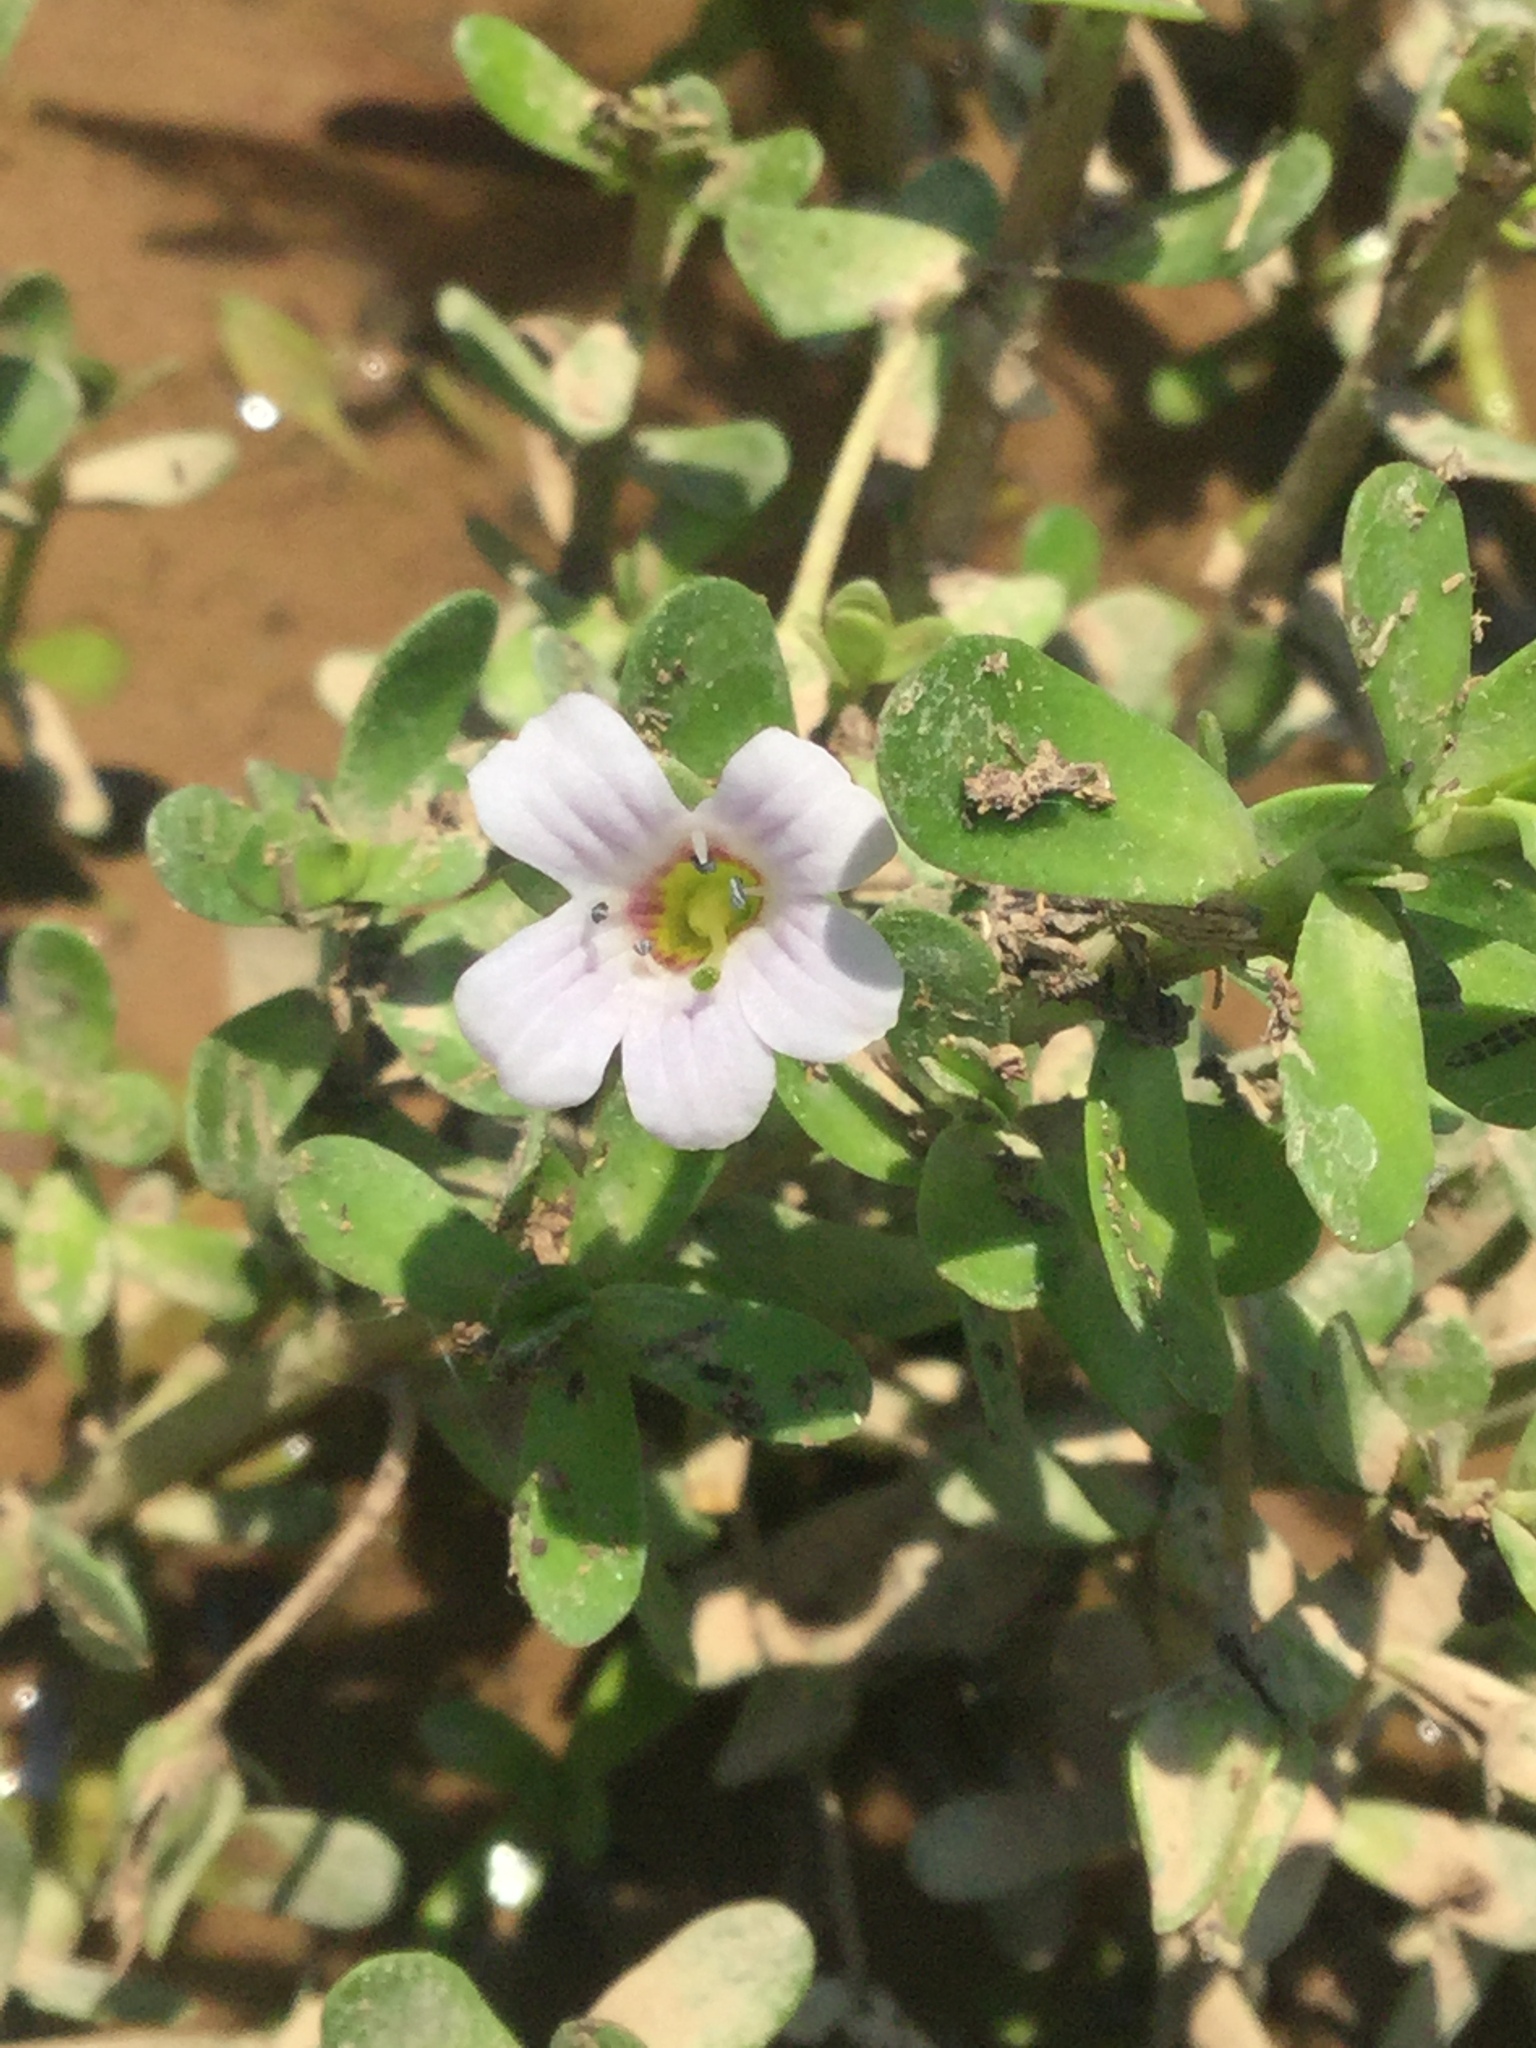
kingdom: Plantae
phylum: Tracheophyta
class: Magnoliopsida
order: Lamiales
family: Plantaginaceae
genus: Bacopa
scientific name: Bacopa monnieri
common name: Indian-pennywort
